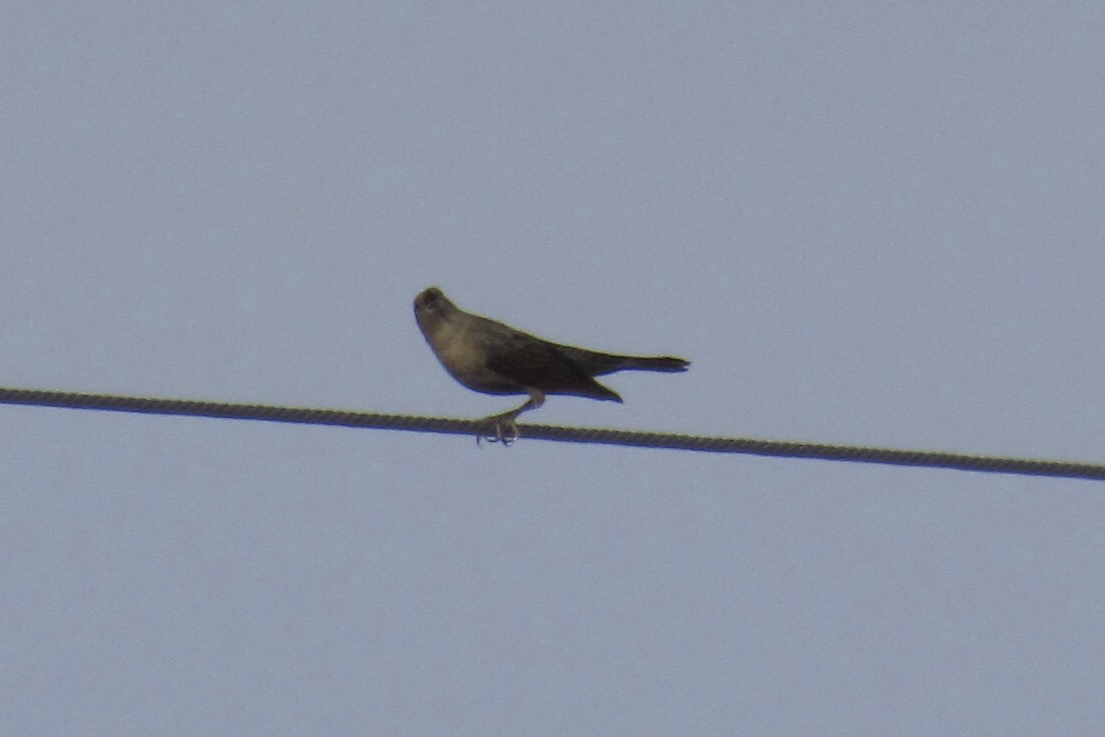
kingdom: Animalia
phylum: Chordata
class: Aves
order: Passeriformes
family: Icteridae
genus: Euphagus
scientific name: Euphagus cyanocephalus
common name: Brewer's blackbird
